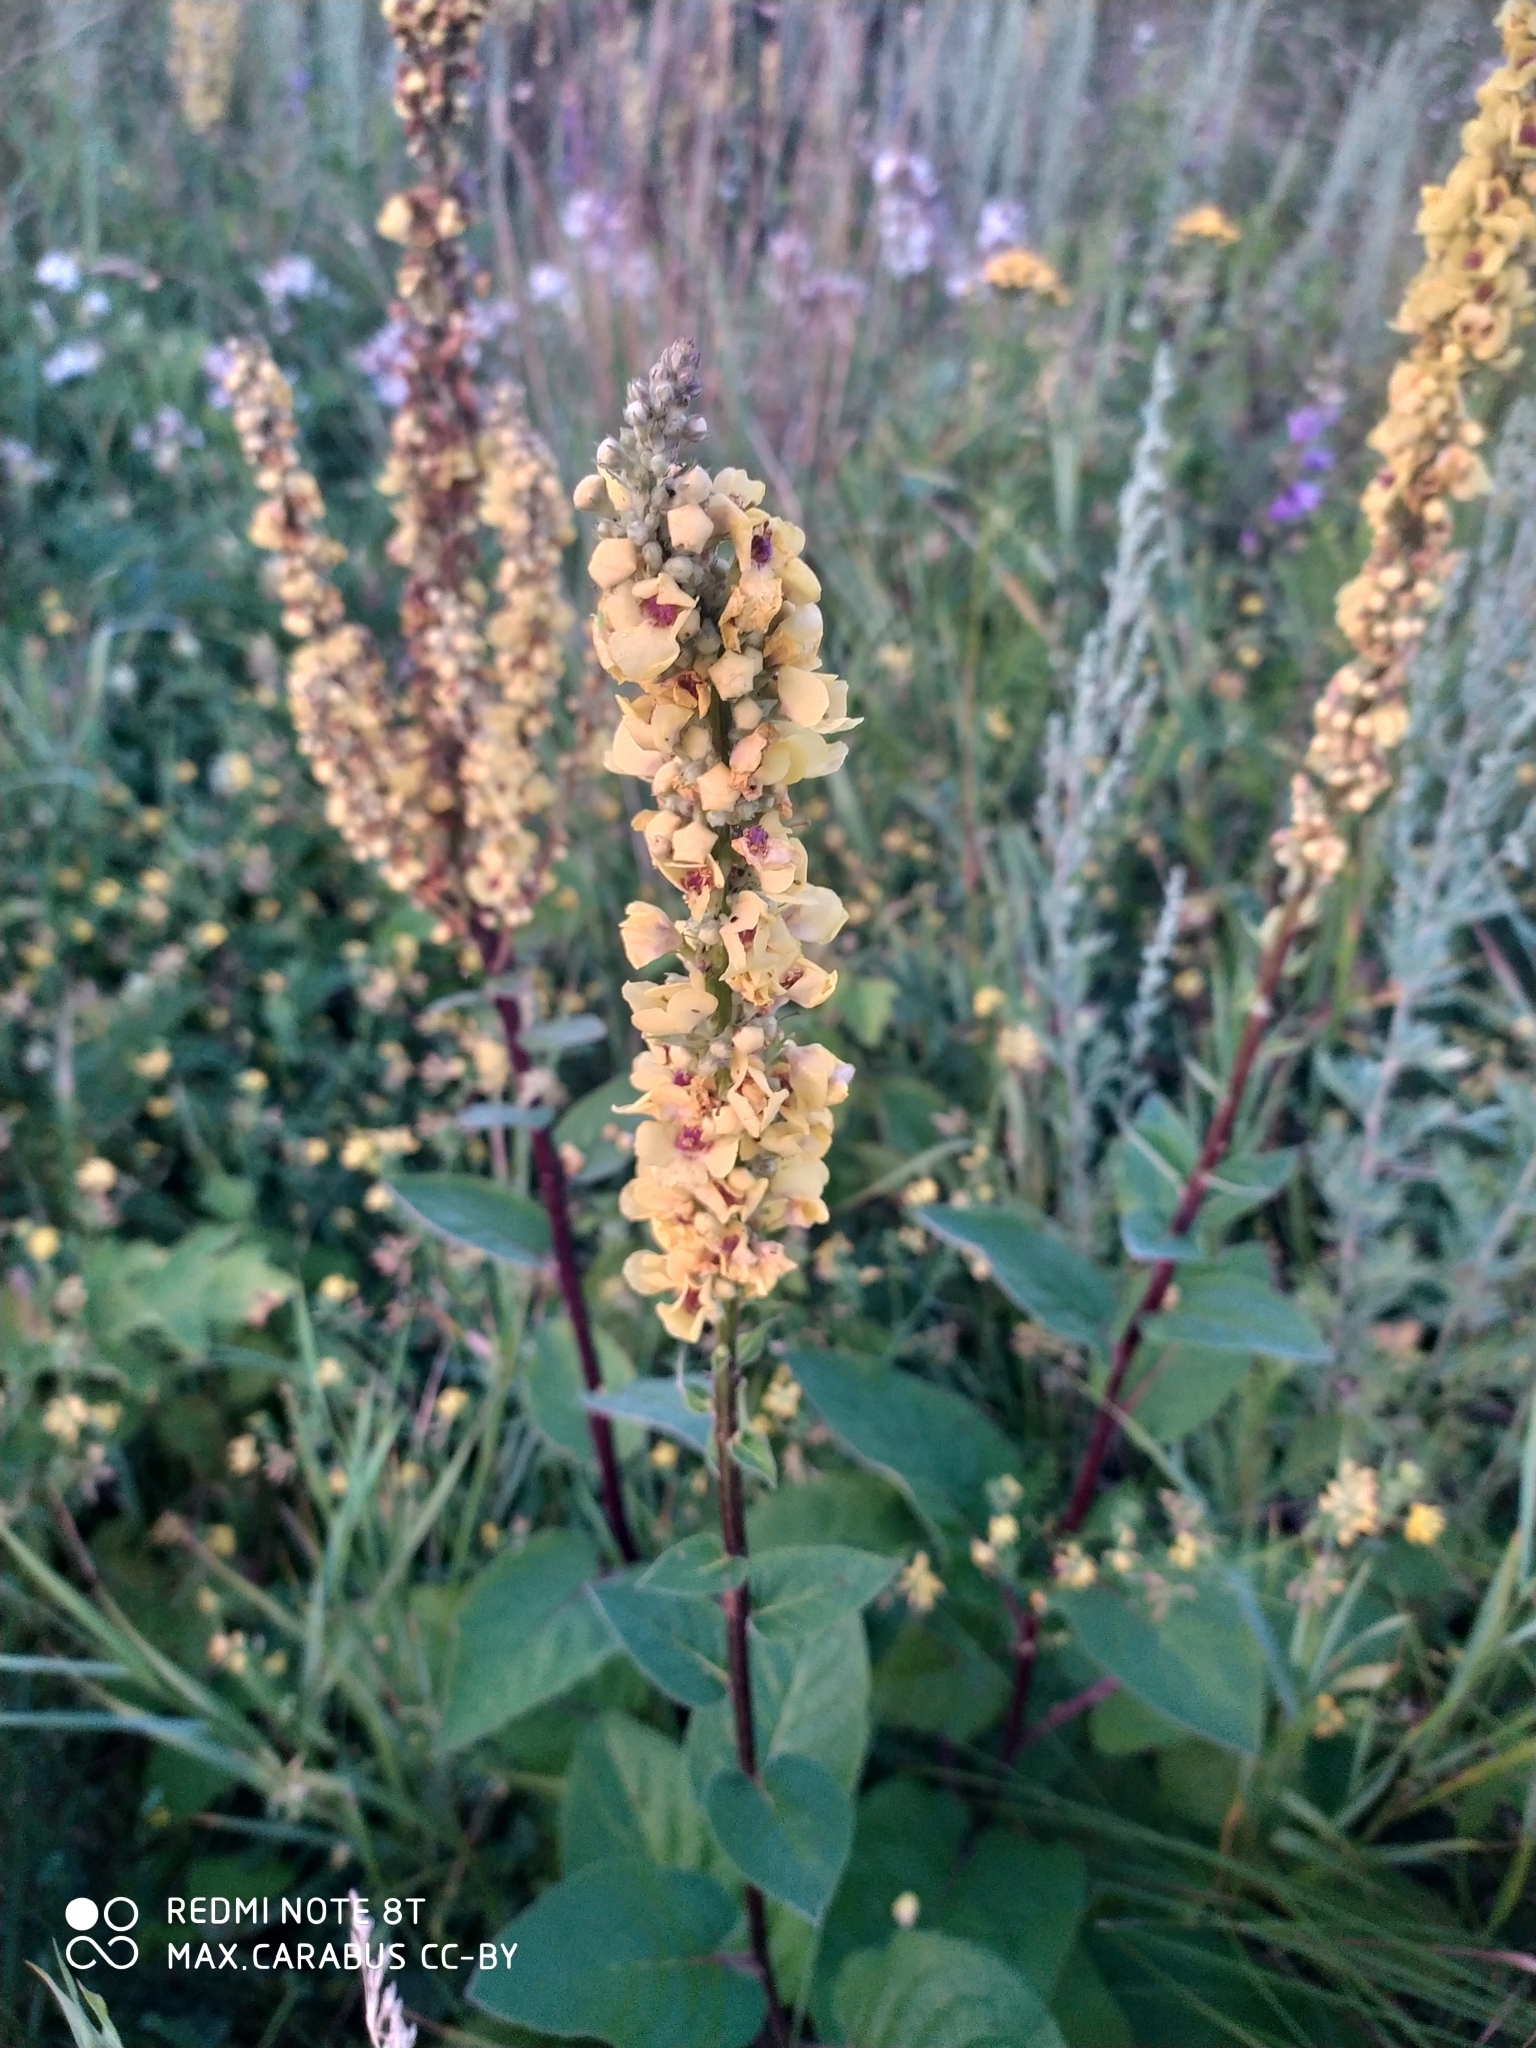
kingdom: Plantae
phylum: Tracheophyta
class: Magnoliopsida
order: Lamiales
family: Scrophulariaceae
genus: Verbascum
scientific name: Verbascum nigrum
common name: Dark mullein
